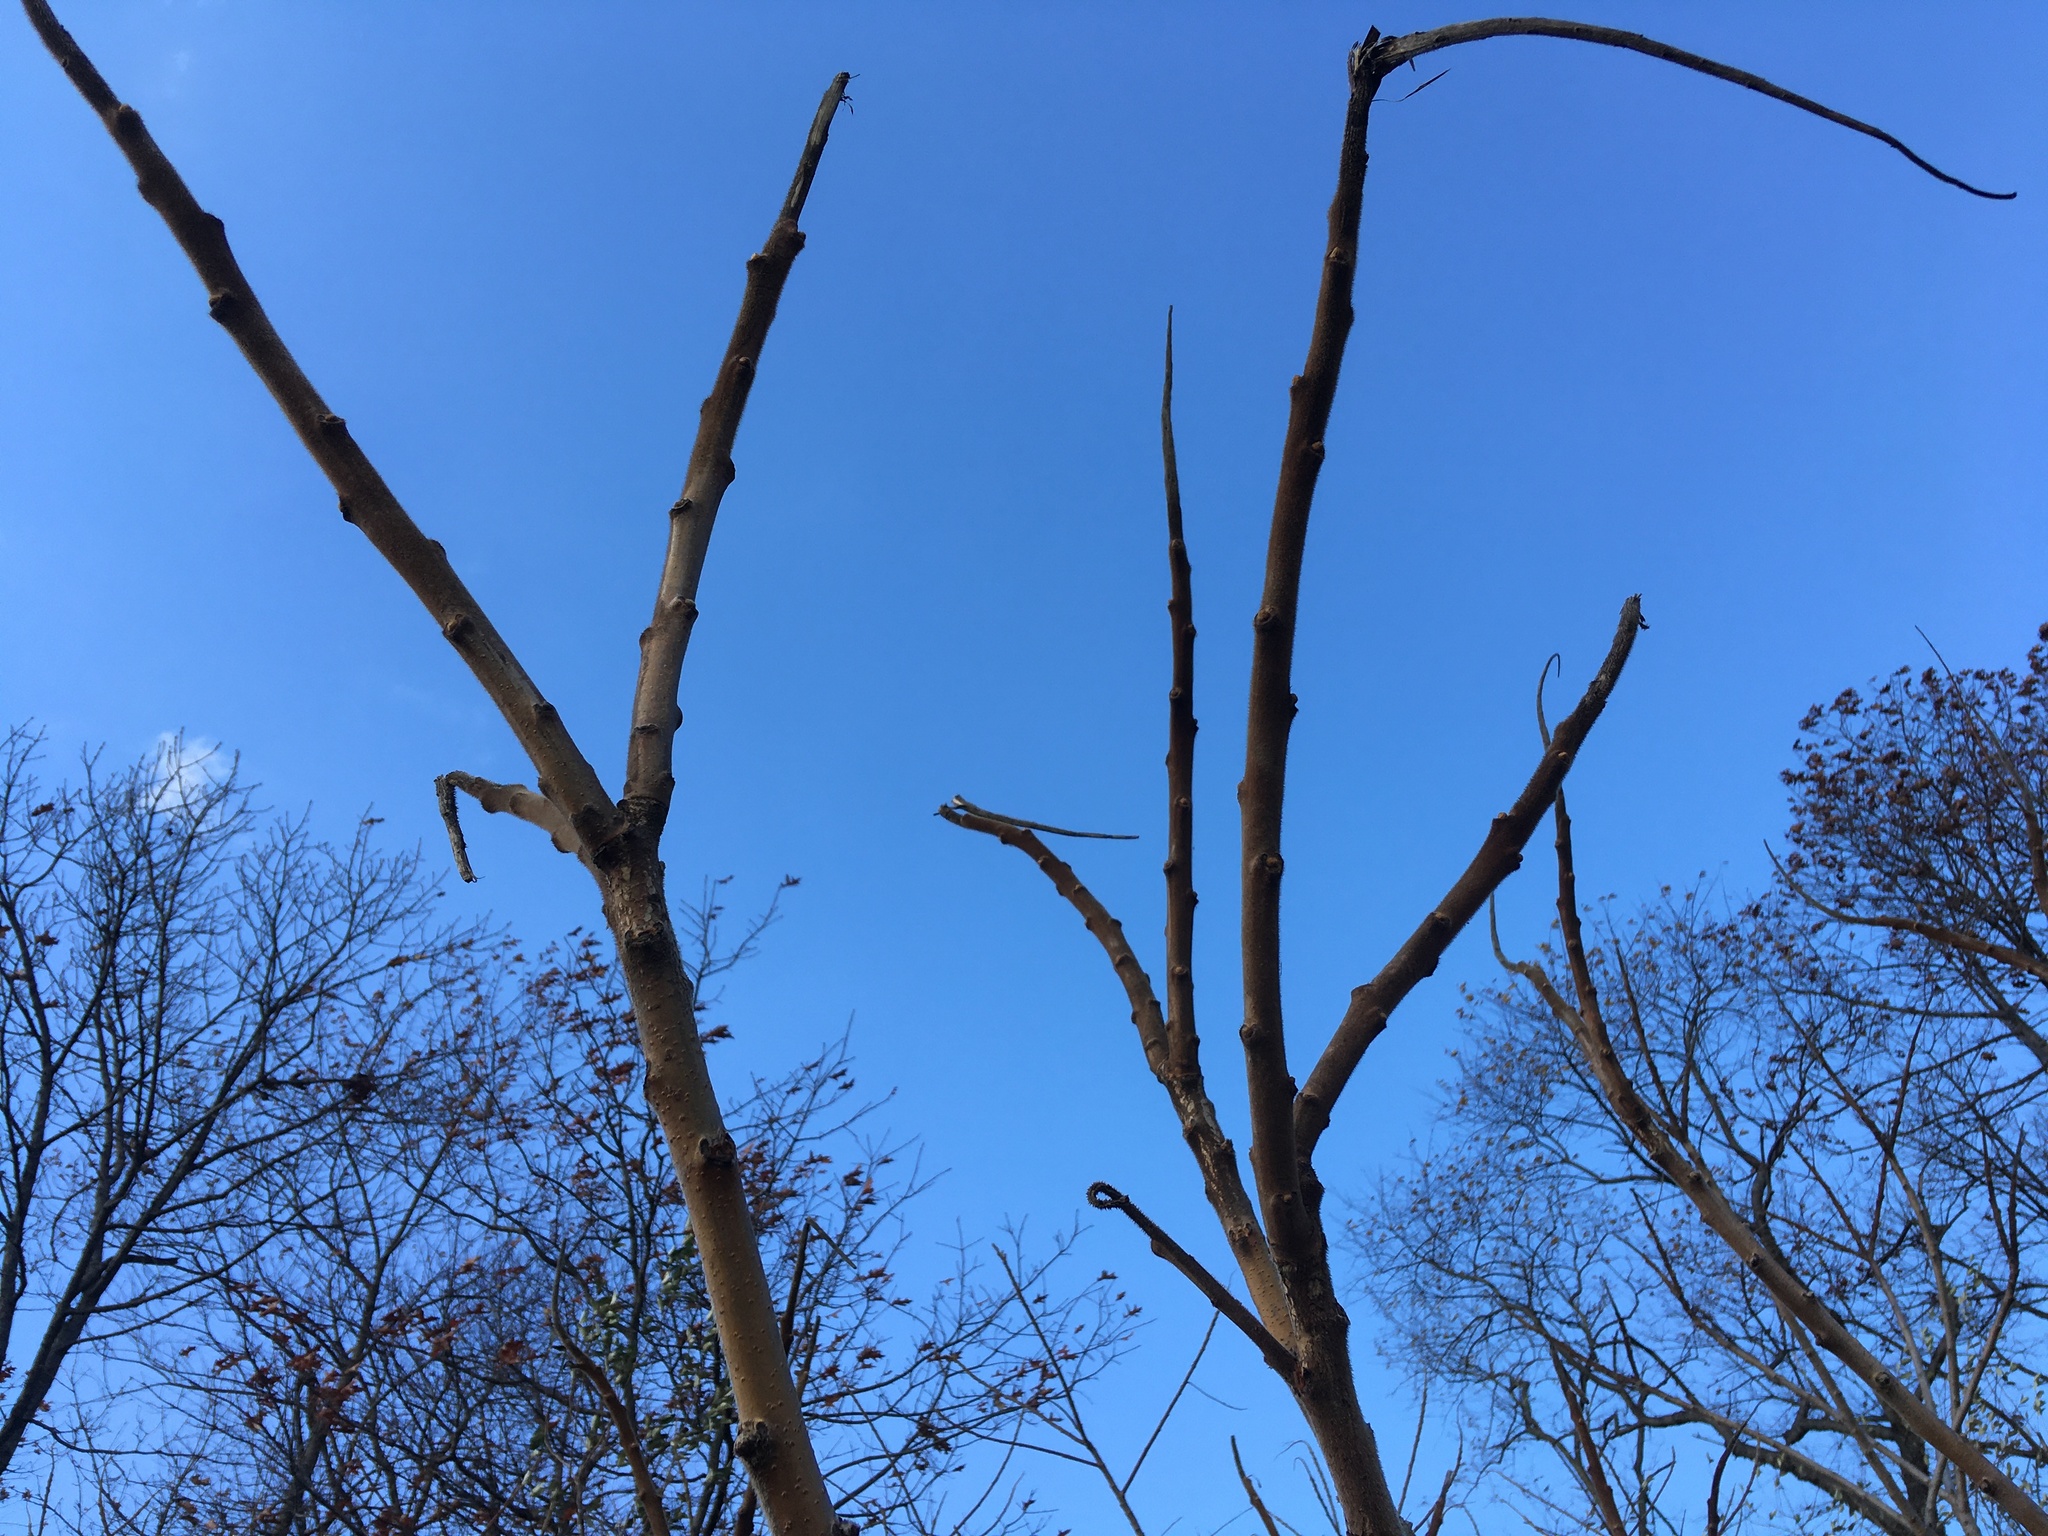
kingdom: Plantae
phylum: Tracheophyta
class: Magnoliopsida
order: Sapindales
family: Anacardiaceae
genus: Rhus
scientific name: Rhus typhina
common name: Staghorn sumac
